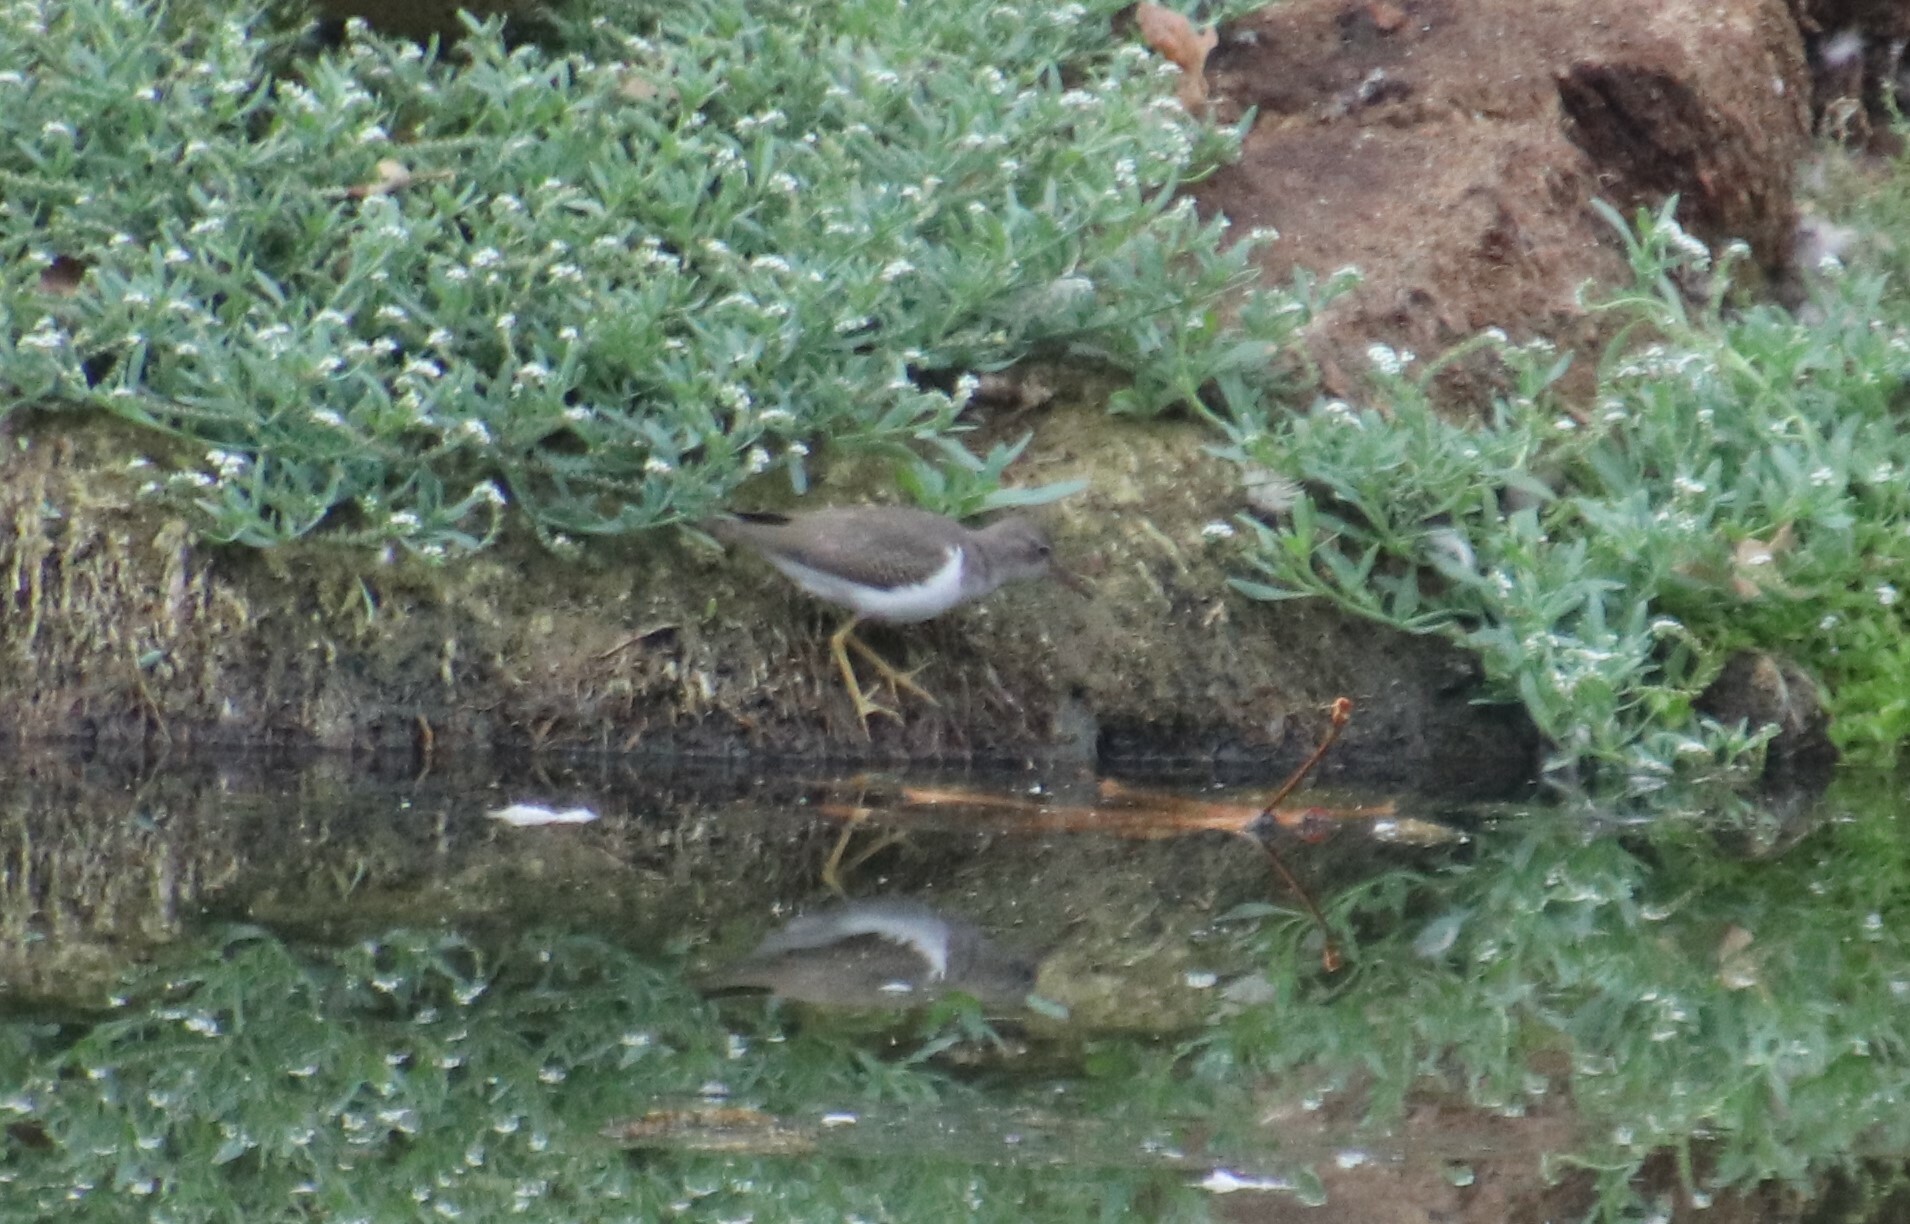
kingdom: Animalia
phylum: Chordata
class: Aves
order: Charadriiformes
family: Scolopacidae
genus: Actitis
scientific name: Actitis macularius
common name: Spotted sandpiper
